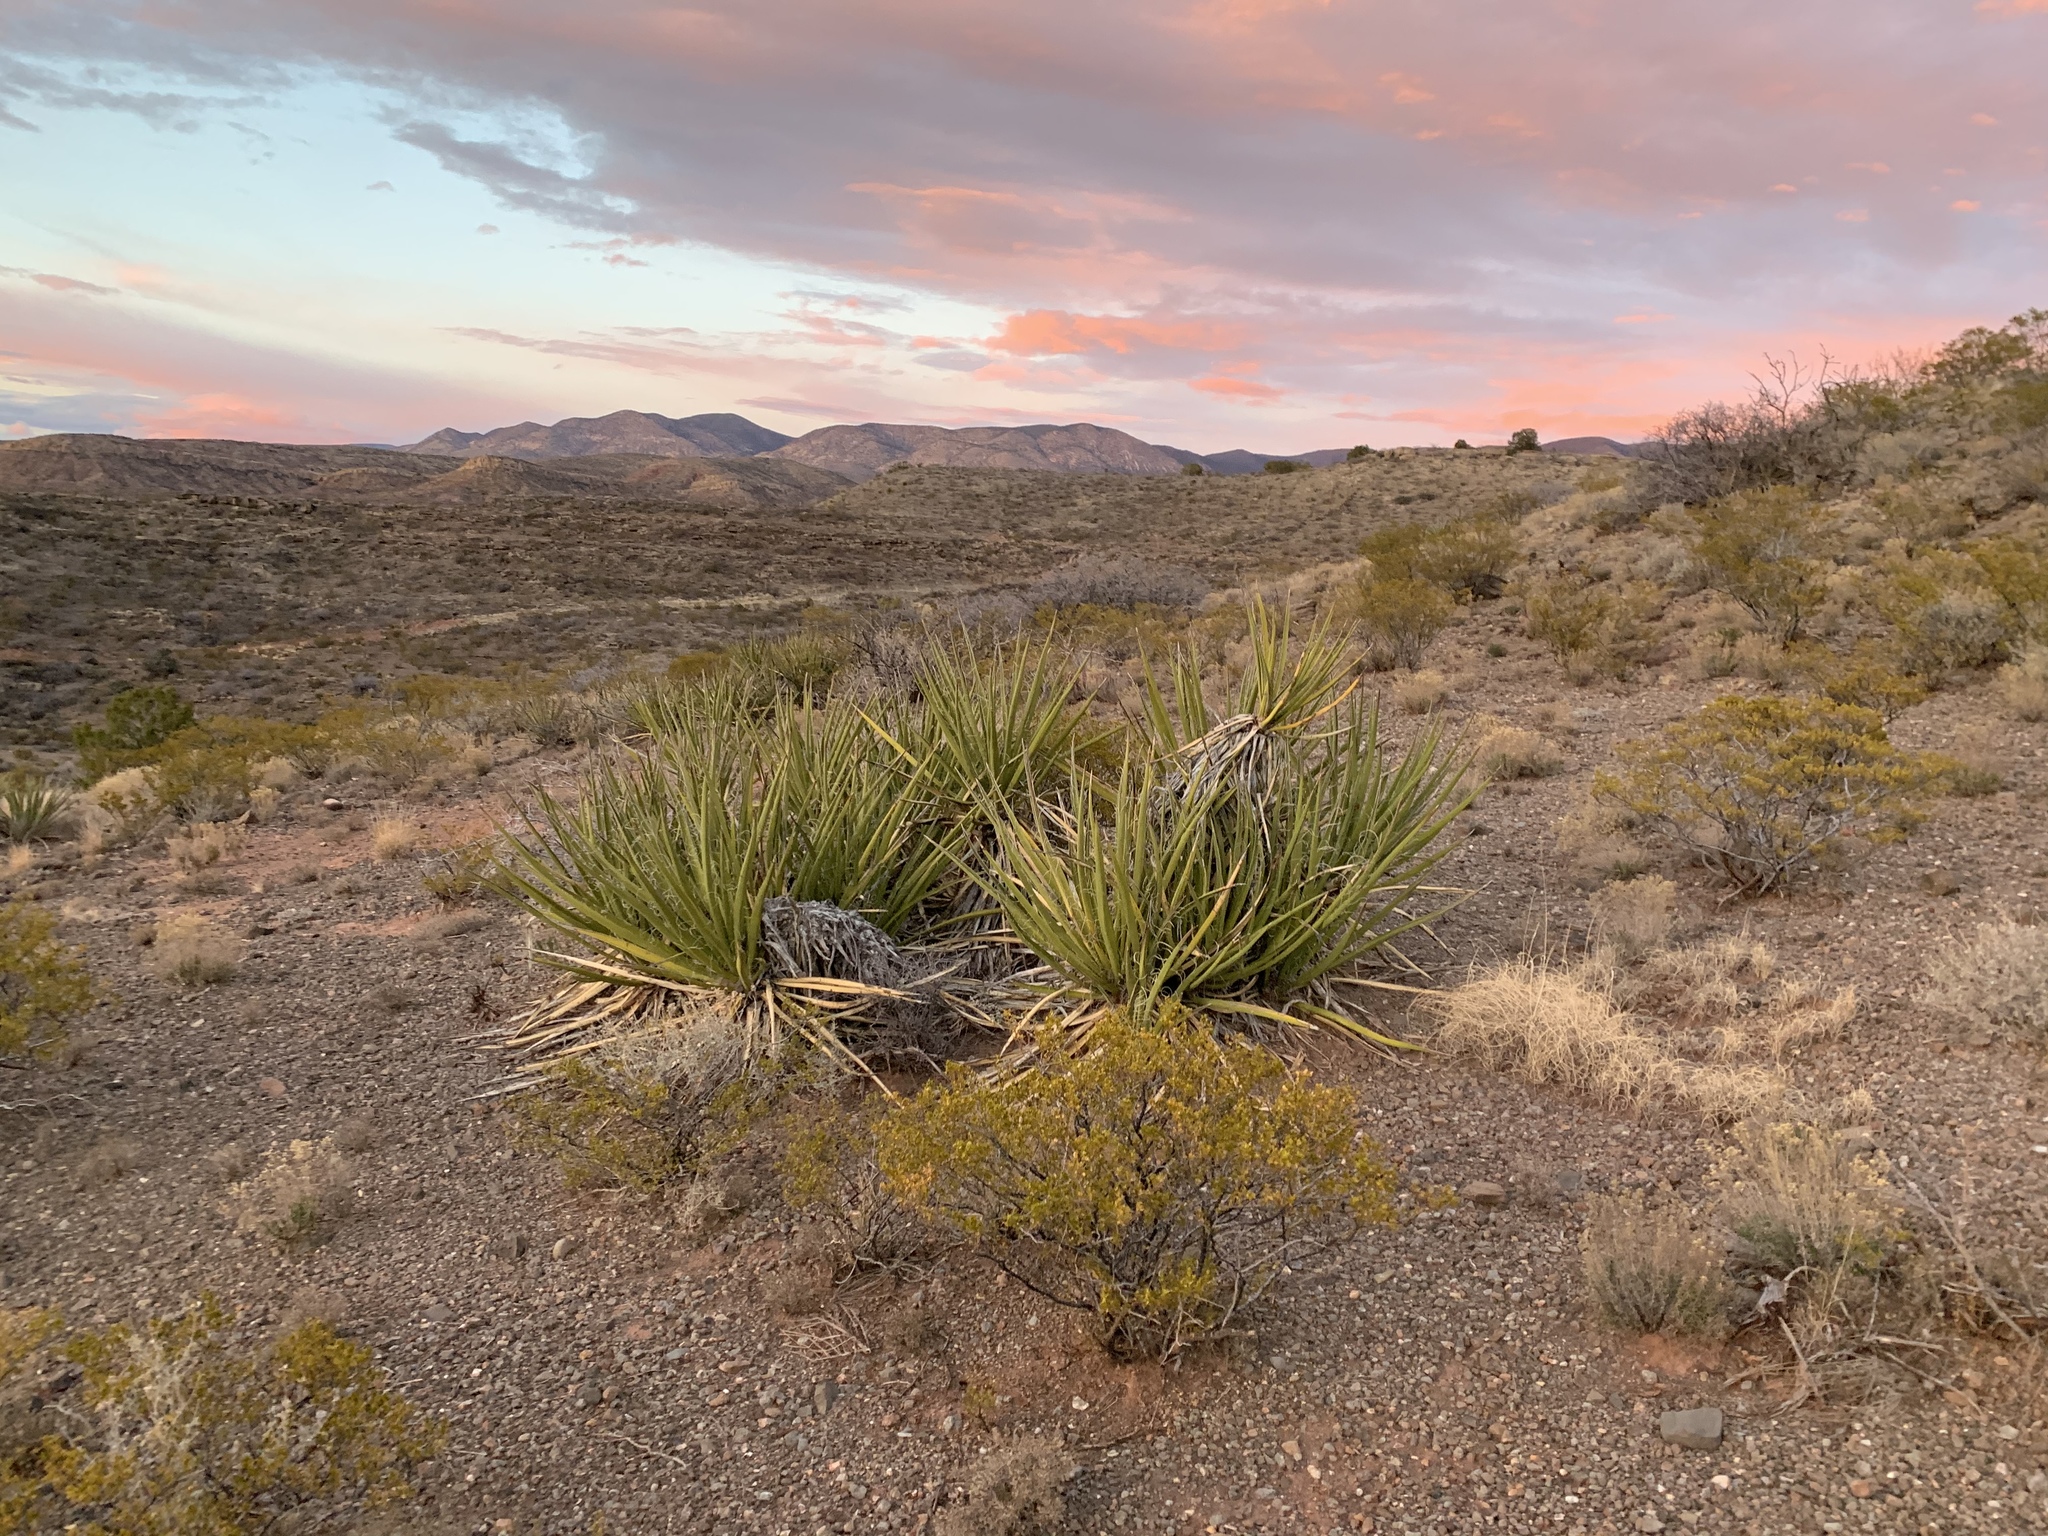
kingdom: Plantae
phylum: Tracheophyta
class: Liliopsida
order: Asparagales
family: Asparagaceae
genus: Yucca
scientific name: Yucca baccata
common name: Banana yucca
